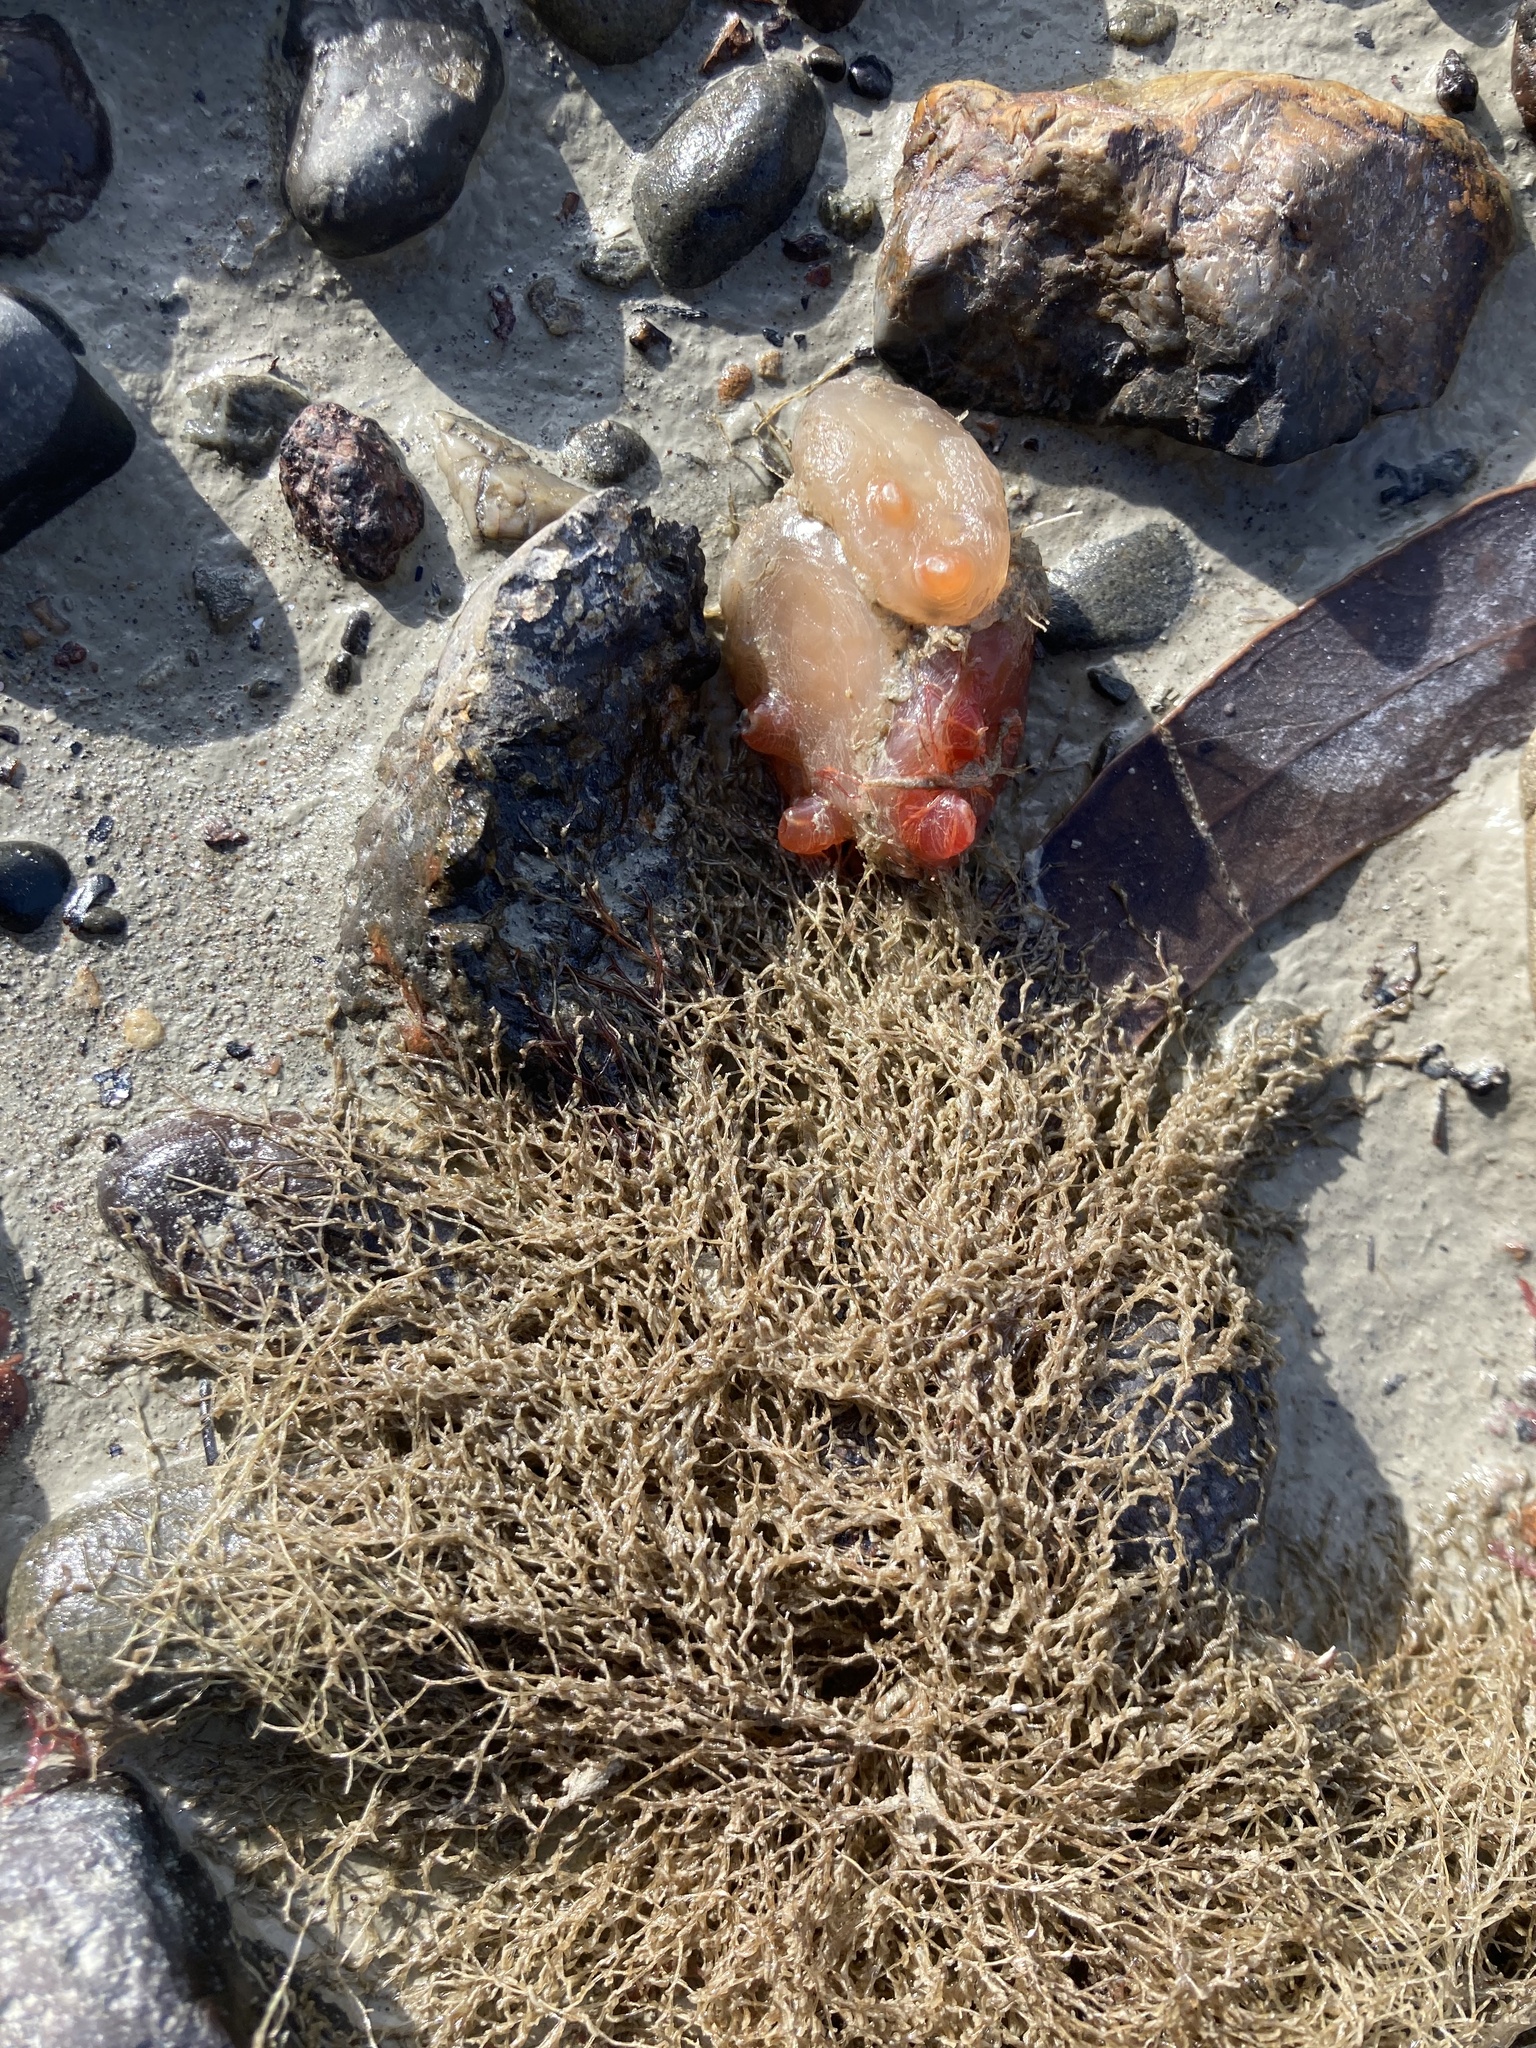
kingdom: Animalia
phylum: Chordata
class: Ascidiacea
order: Phlebobranchia
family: Corellidae
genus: Corella
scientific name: Corella eumyota
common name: Orange-tipped sea squirt
